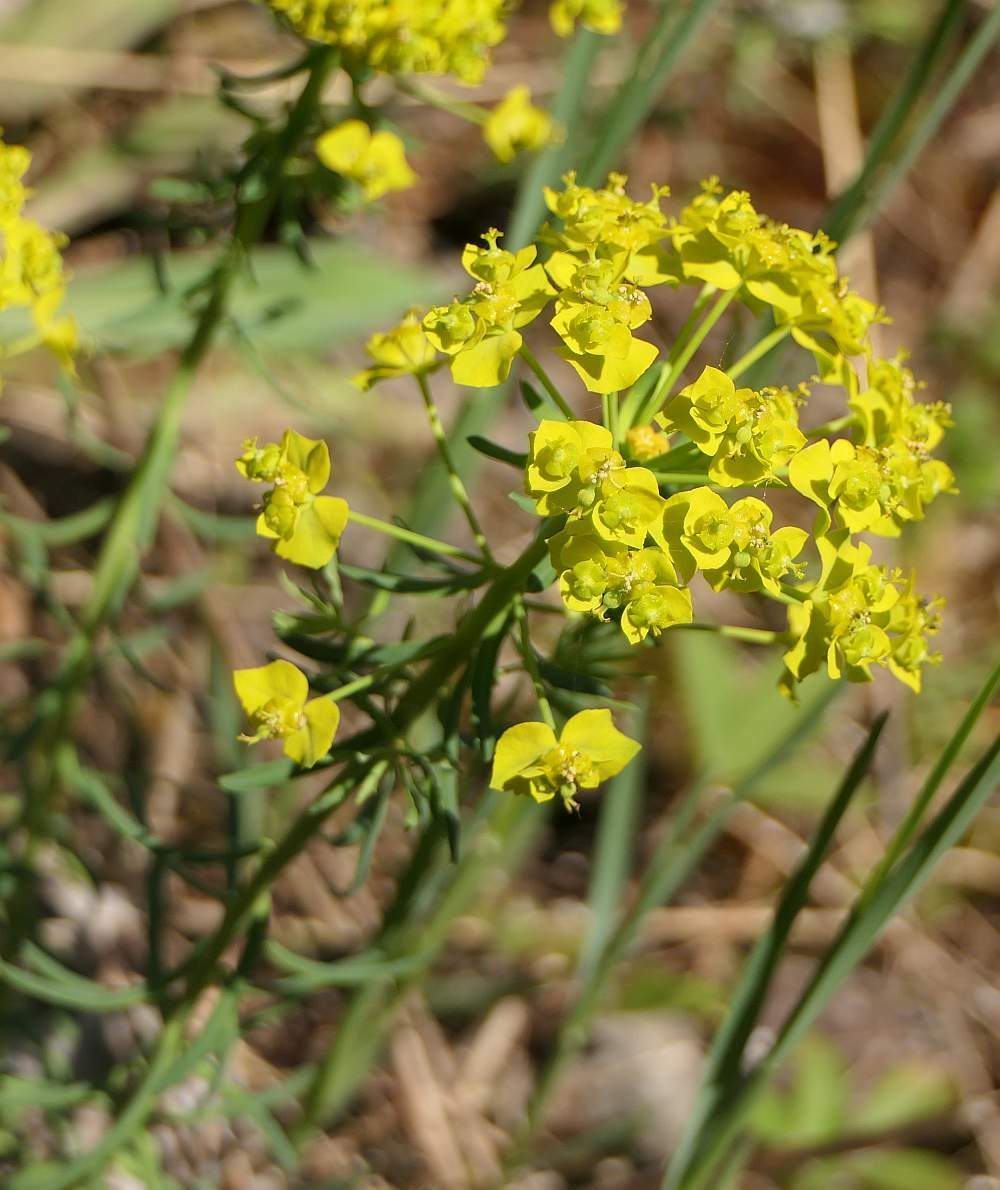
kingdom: Plantae
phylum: Tracheophyta
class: Magnoliopsida
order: Malpighiales
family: Euphorbiaceae
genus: Euphorbia
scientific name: Euphorbia cyparissias
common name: Cypress spurge
